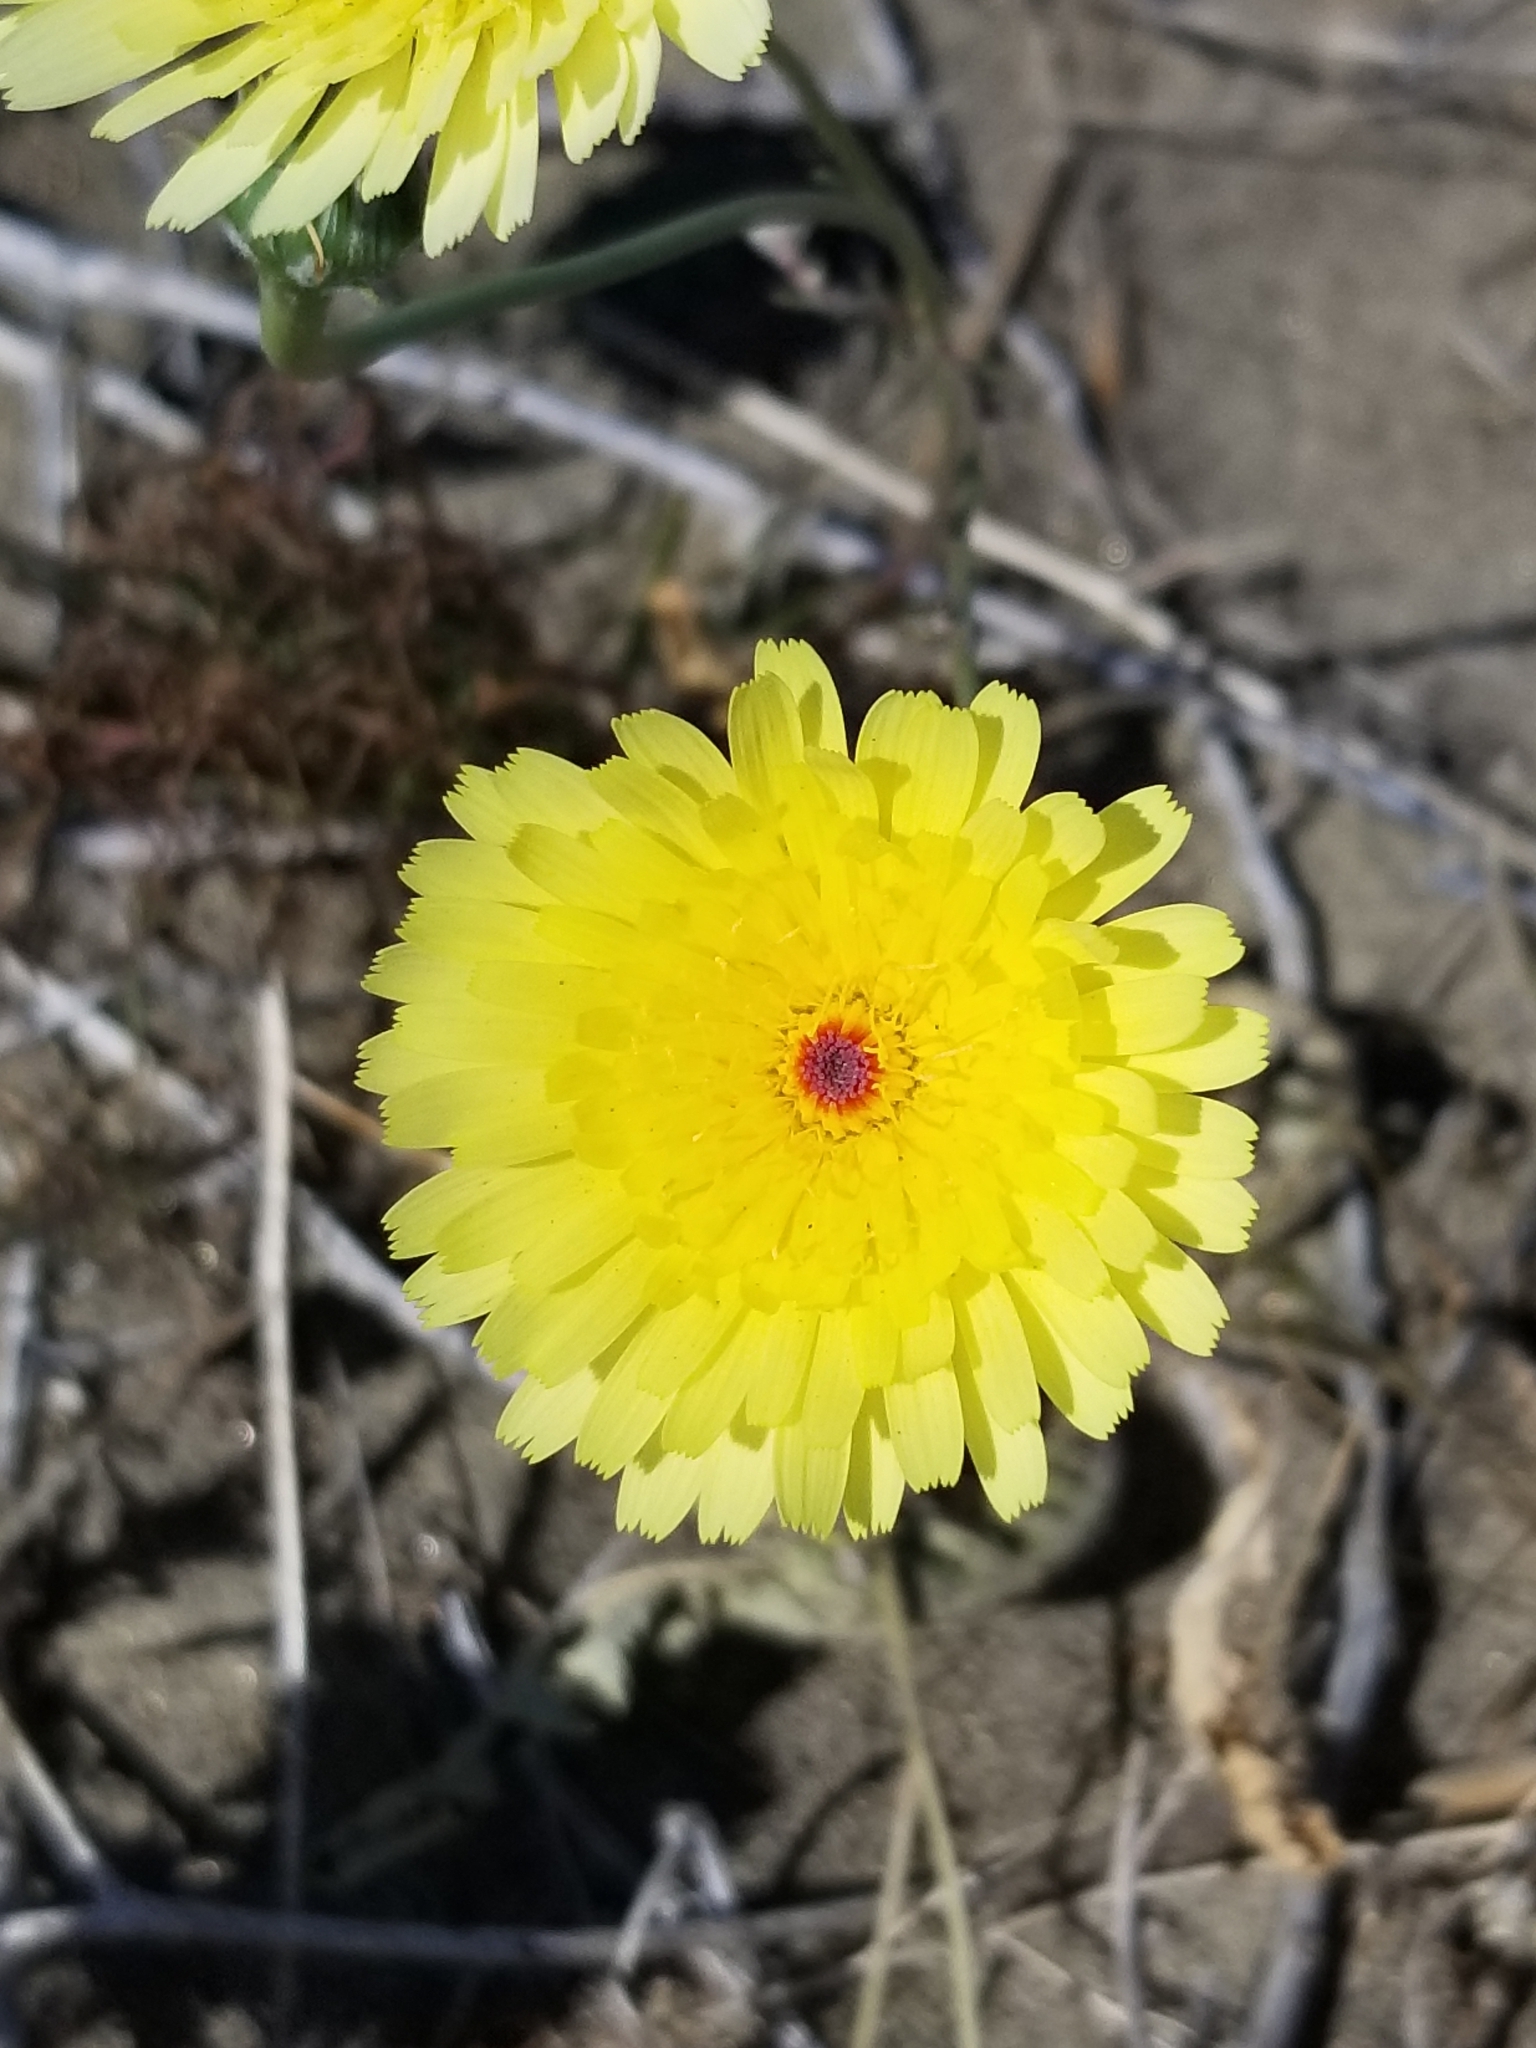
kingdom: Plantae
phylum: Tracheophyta
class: Magnoliopsida
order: Asterales
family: Asteraceae
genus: Malacothrix
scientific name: Malacothrix glabrata
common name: Smooth desert-dandelion
